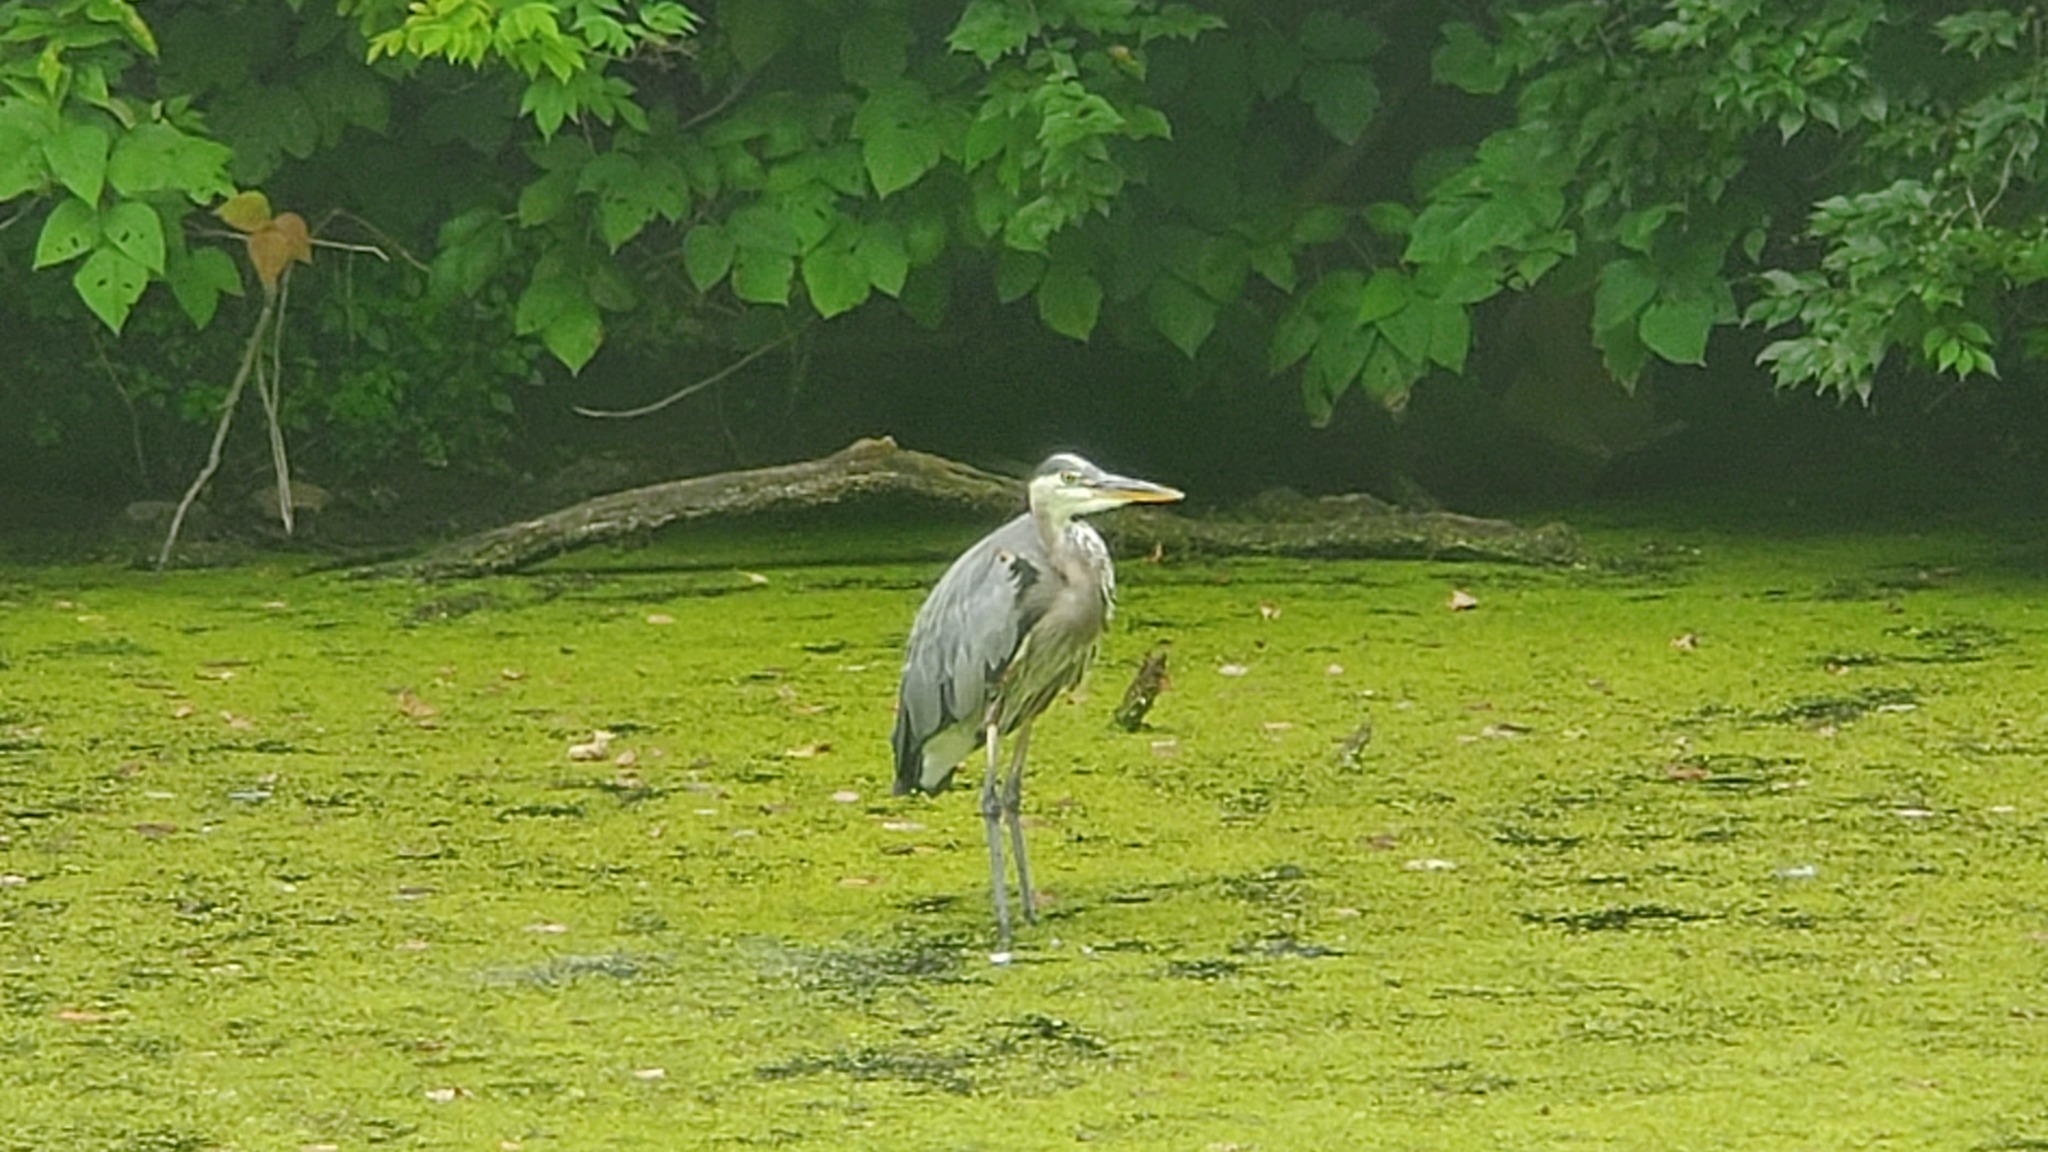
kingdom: Animalia
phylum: Chordata
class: Aves
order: Pelecaniformes
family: Ardeidae
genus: Ardea
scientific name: Ardea herodias
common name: Great blue heron
